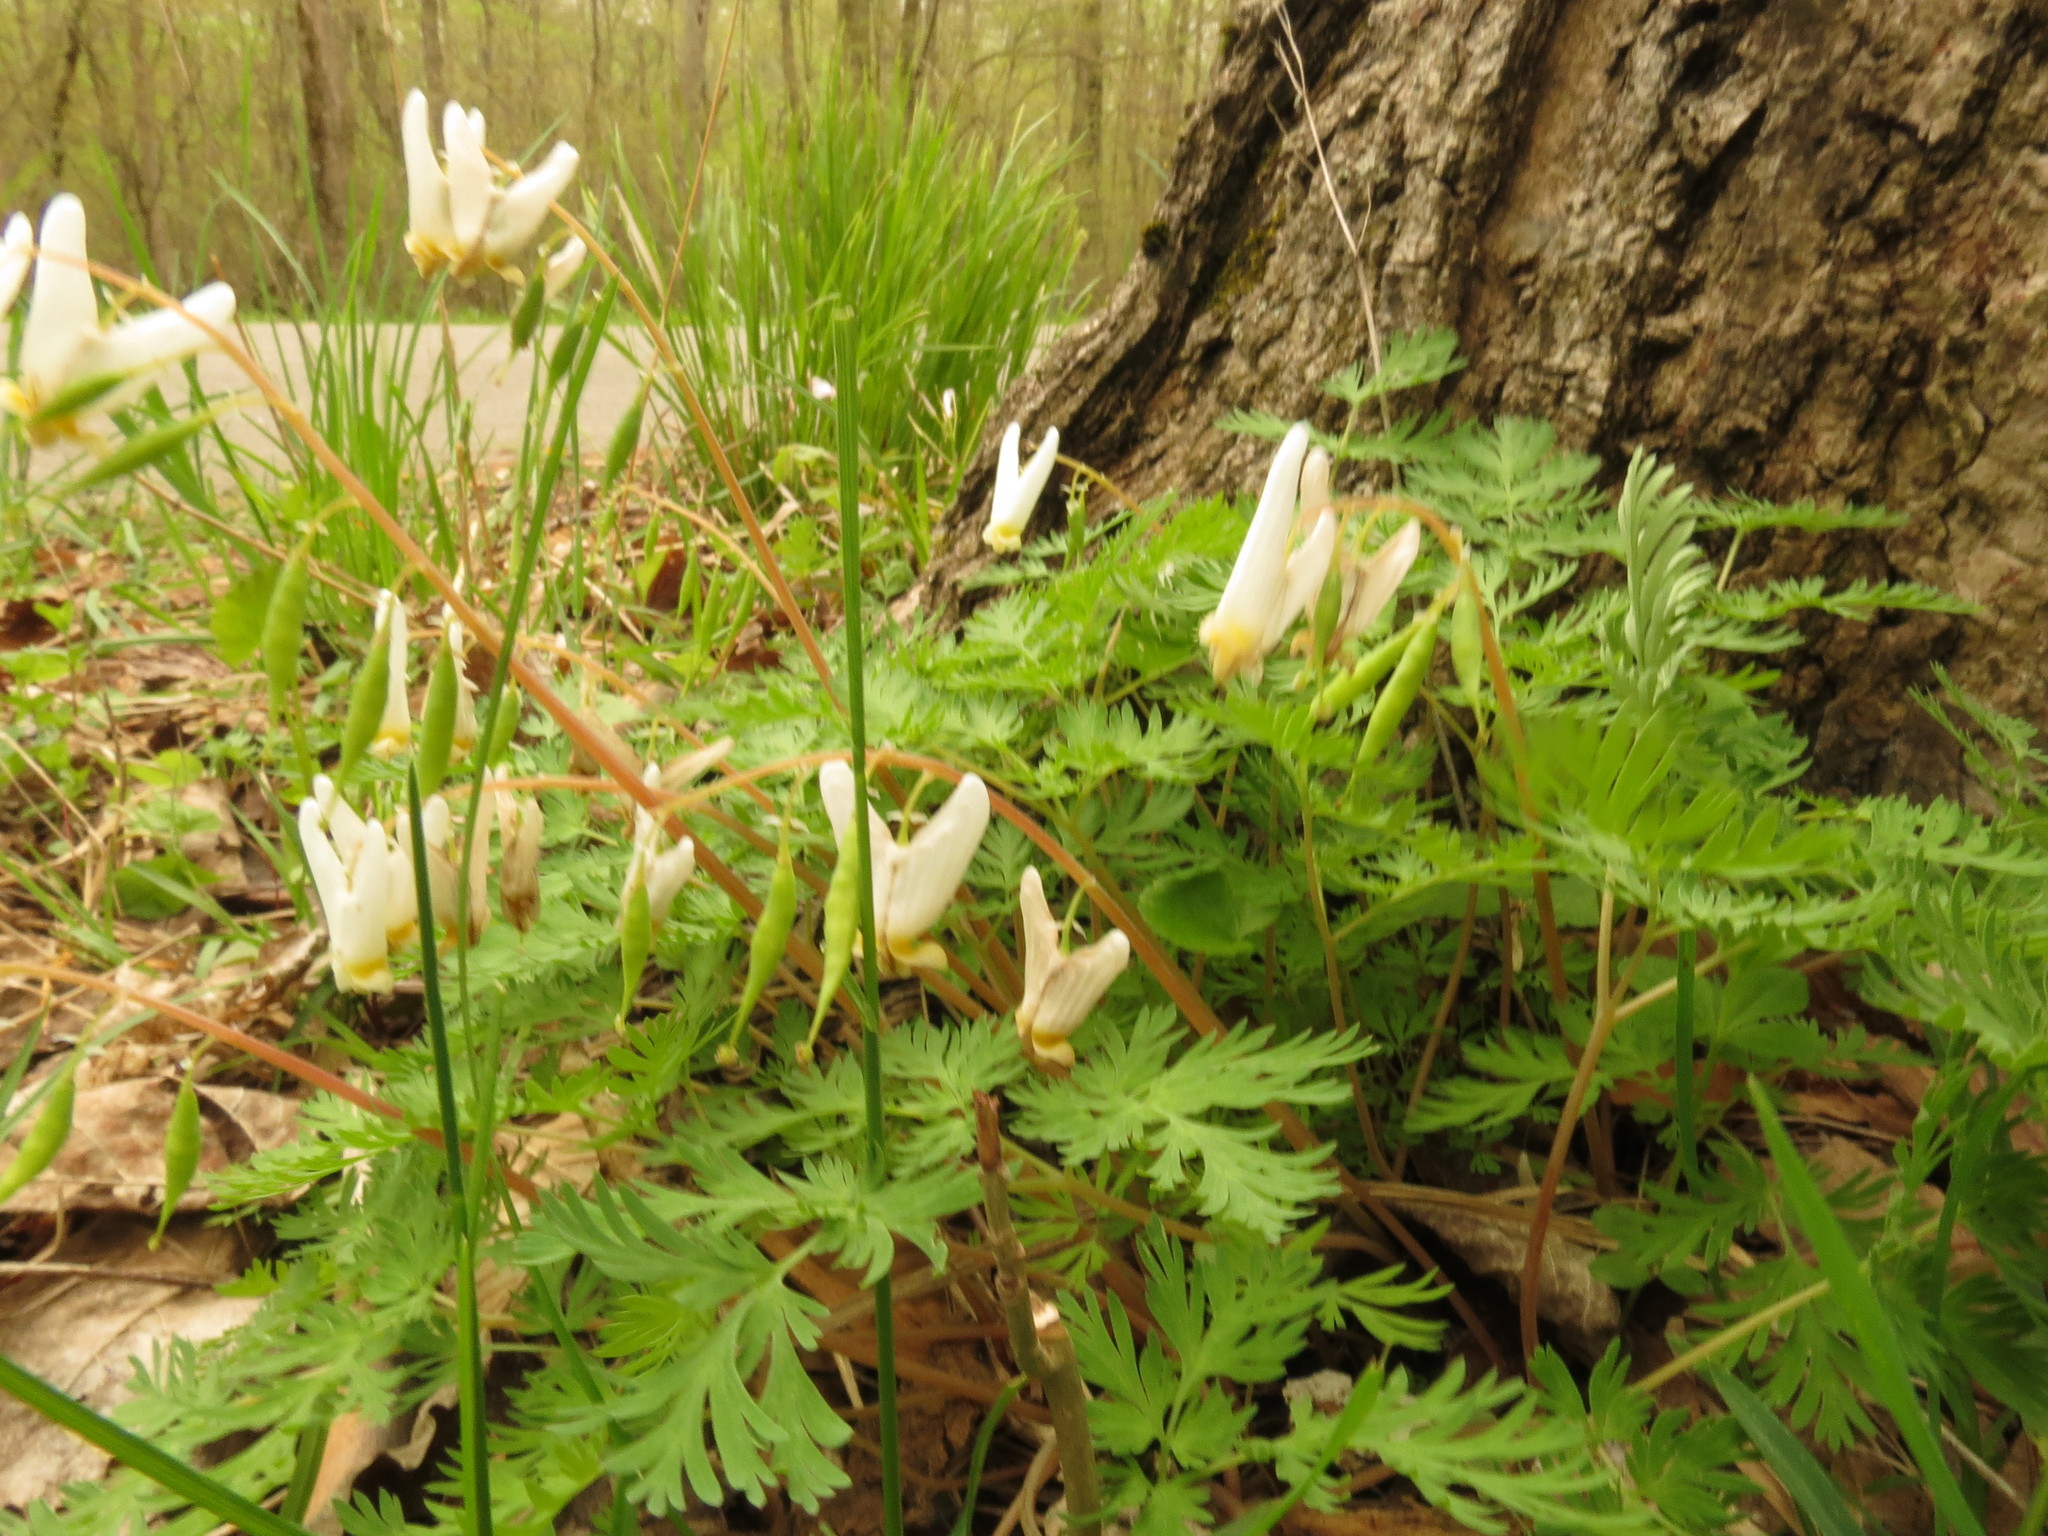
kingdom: Plantae
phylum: Tracheophyta
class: Magnoliopsida
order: Ranunculales
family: Papaveraceae
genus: Dicentra
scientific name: Dicentra cucullaria
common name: Dutchman's breeches
